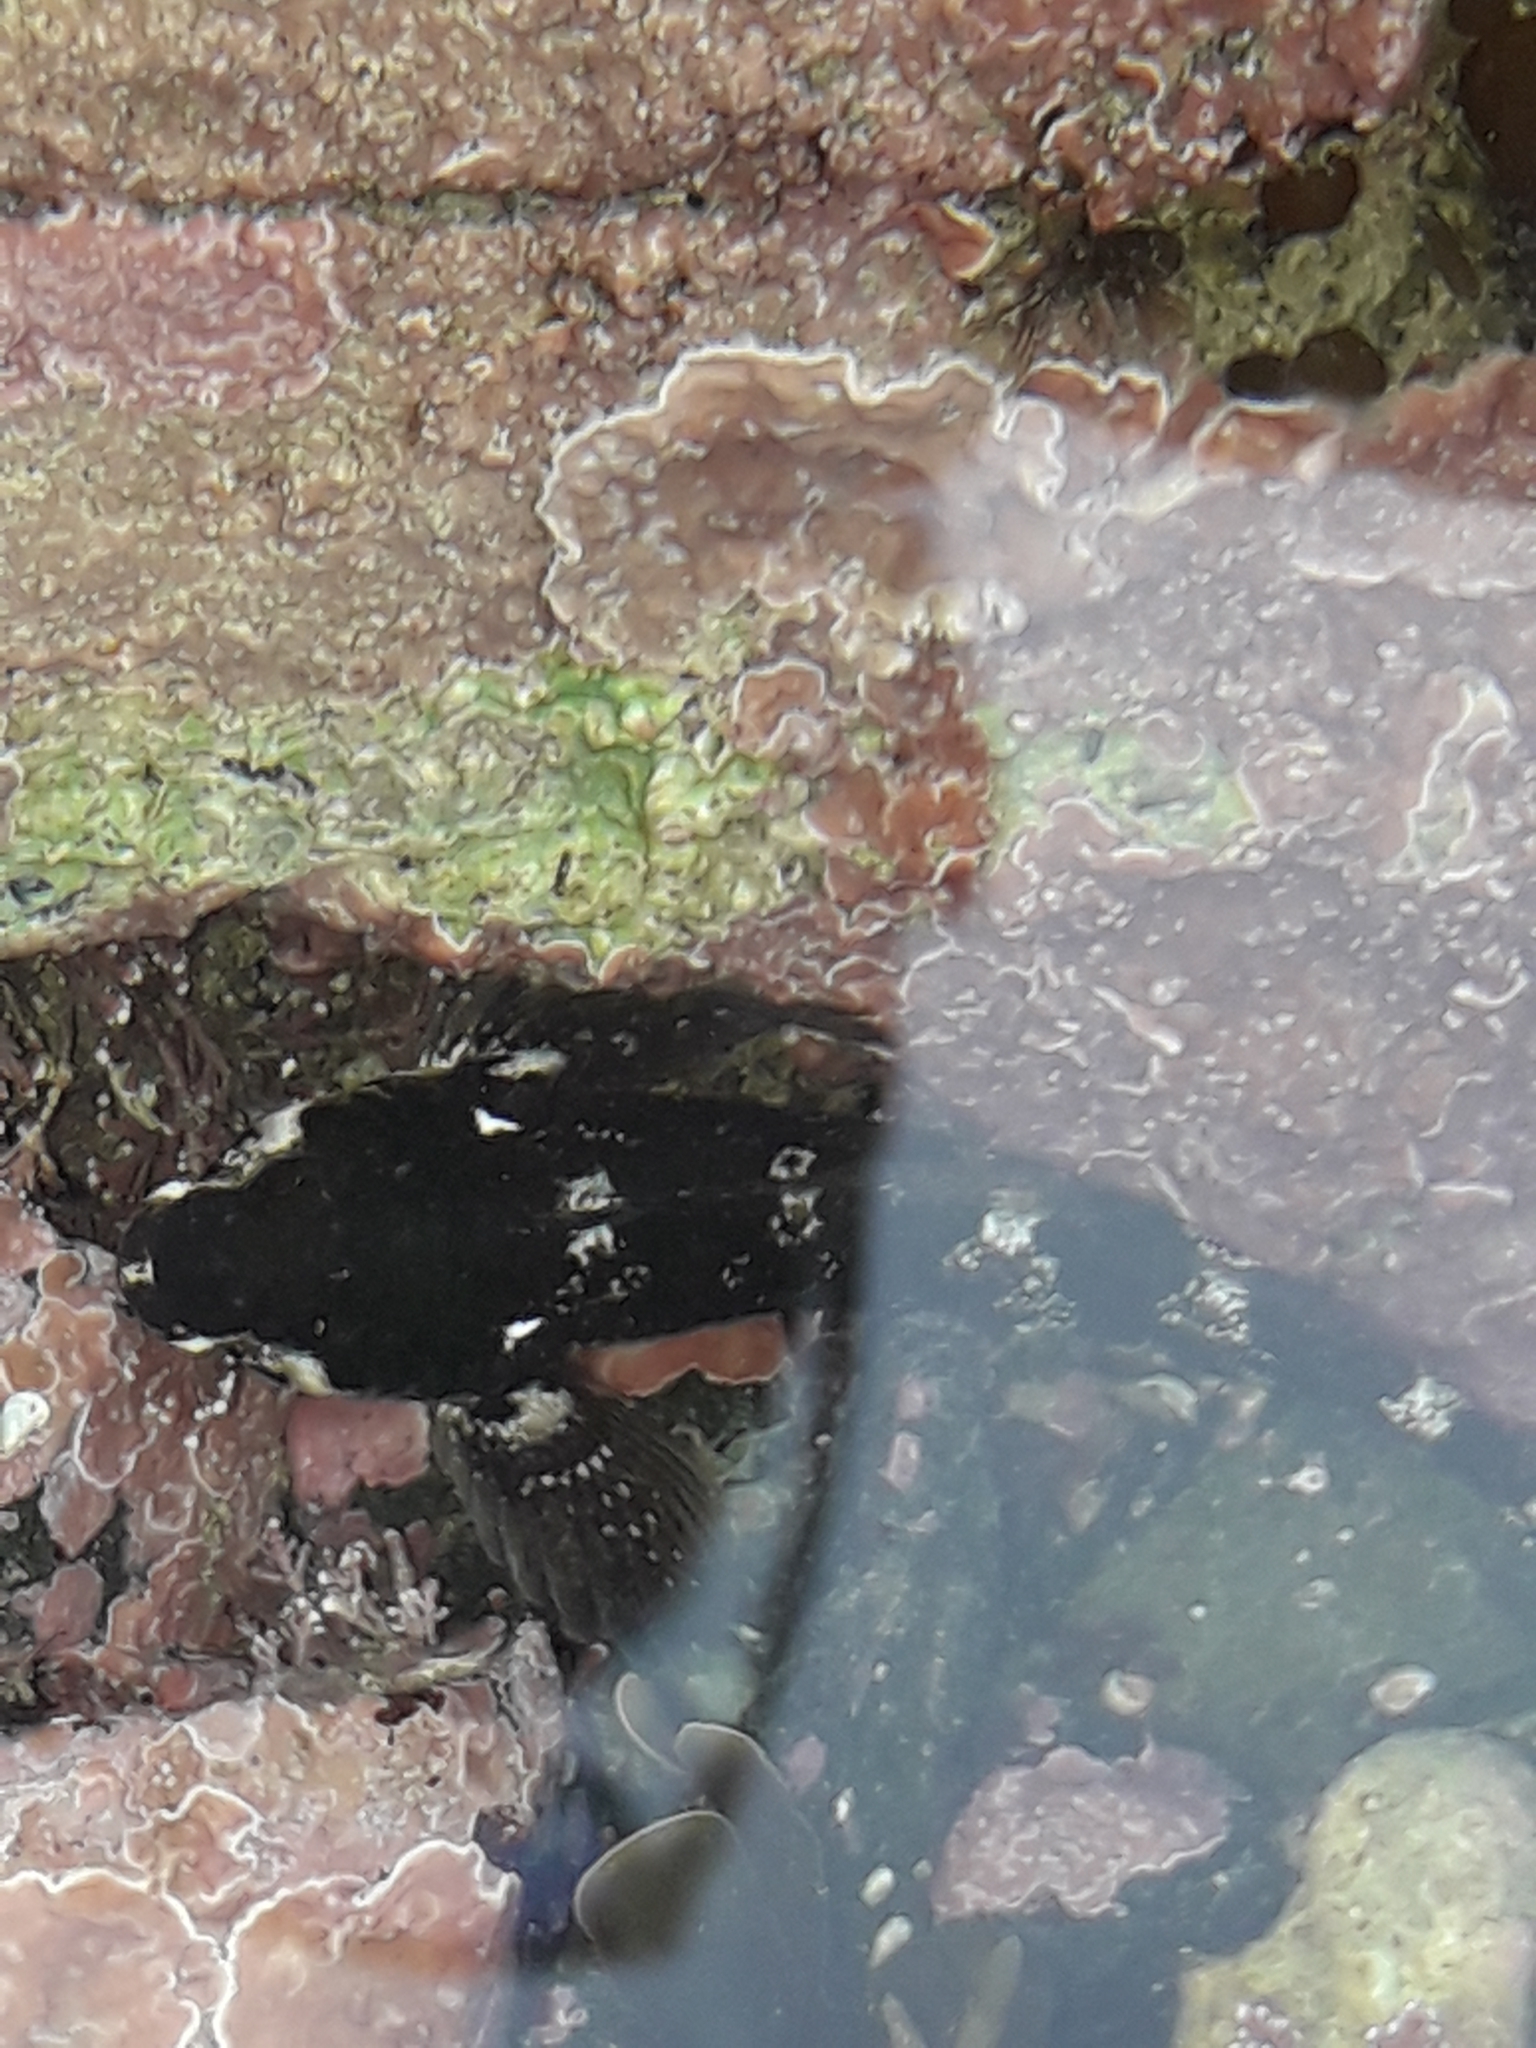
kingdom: Animalia
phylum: Chordata
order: Perciformes
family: Tripterygiidae
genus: Bellapiscis
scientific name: Bellapiscis medius
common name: Twister
